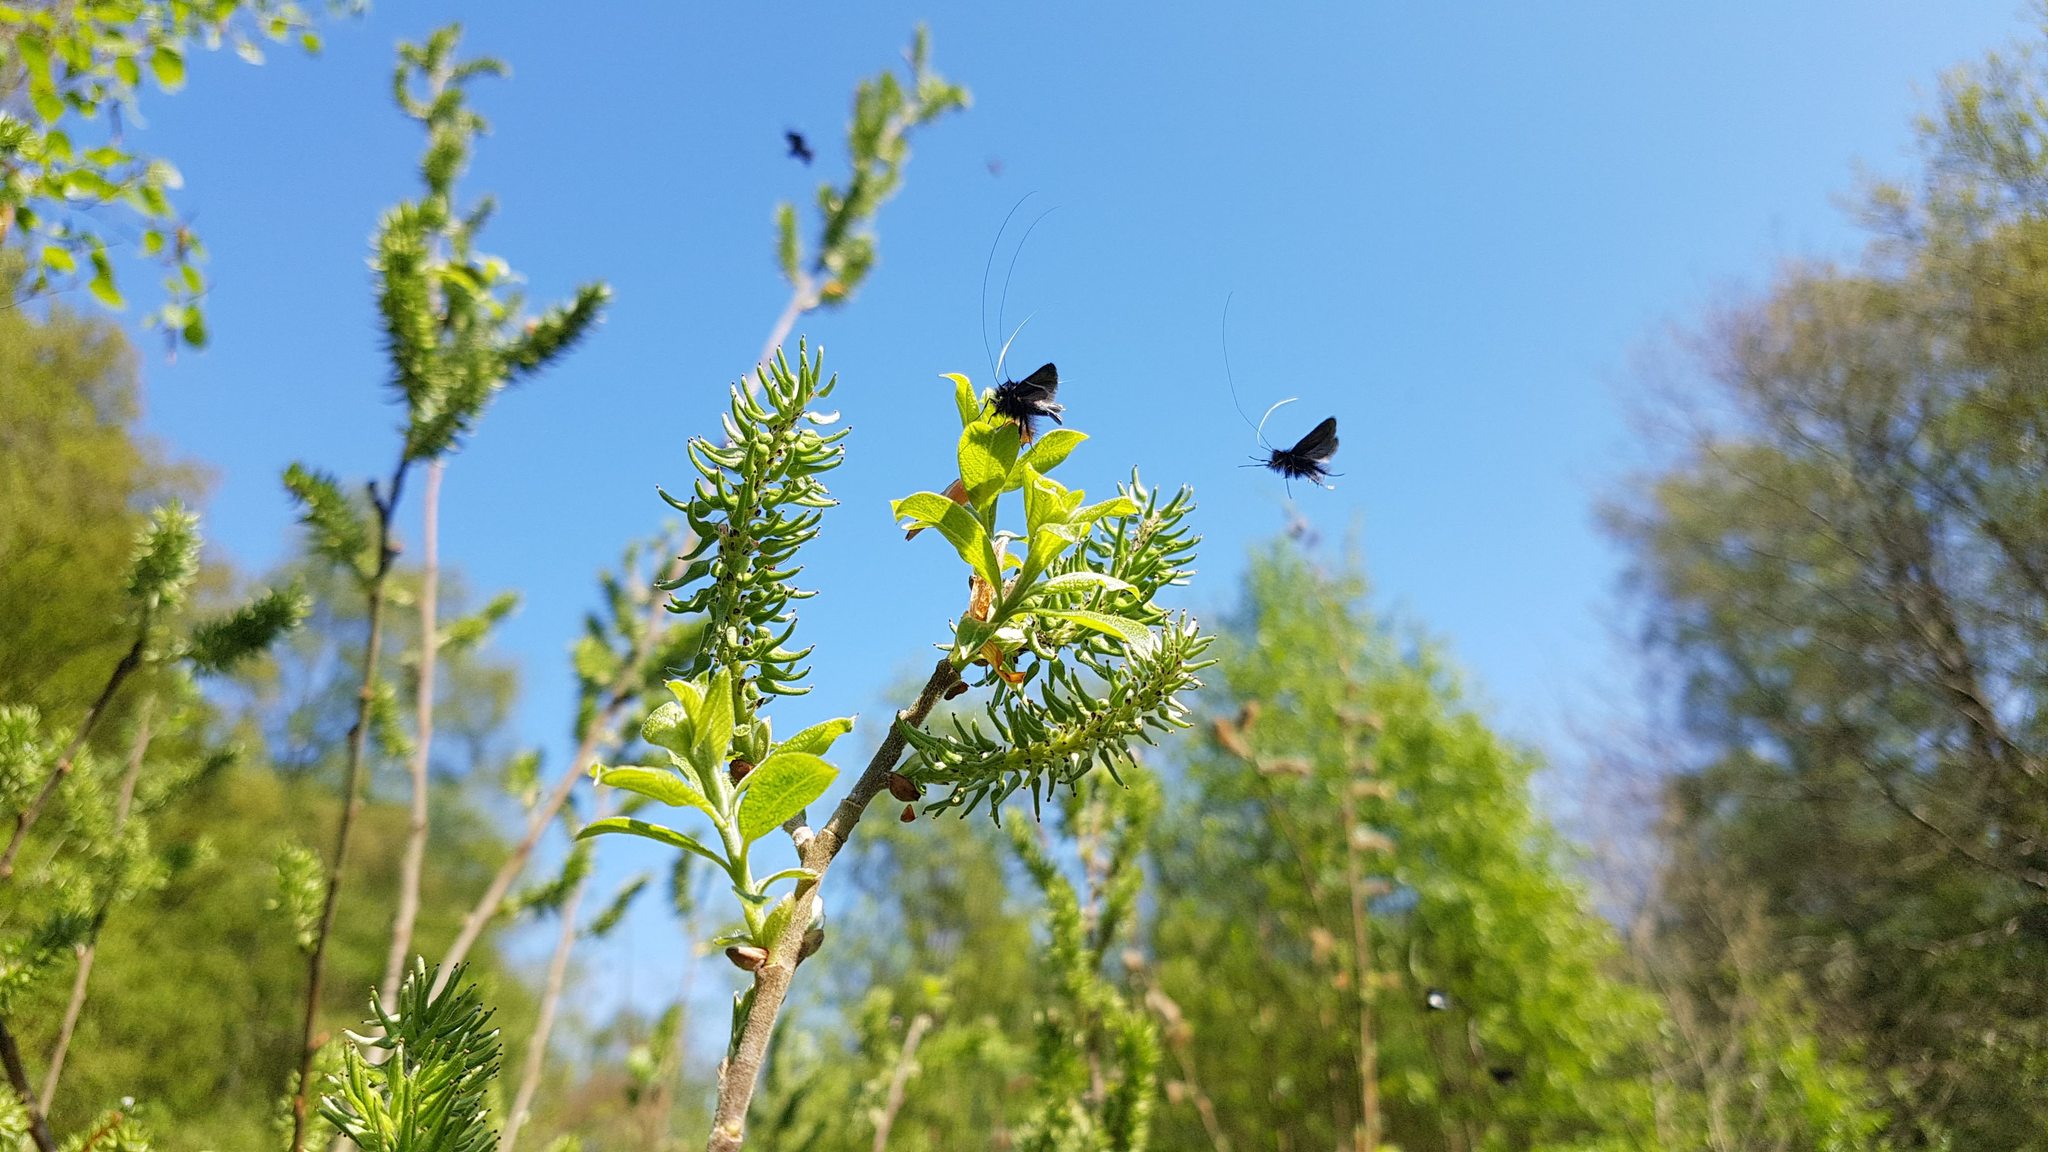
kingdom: Animalia
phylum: Arthropoda
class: Insecta
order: Lepidoptera
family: Adelidae
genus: Adela
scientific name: Adela viridella
